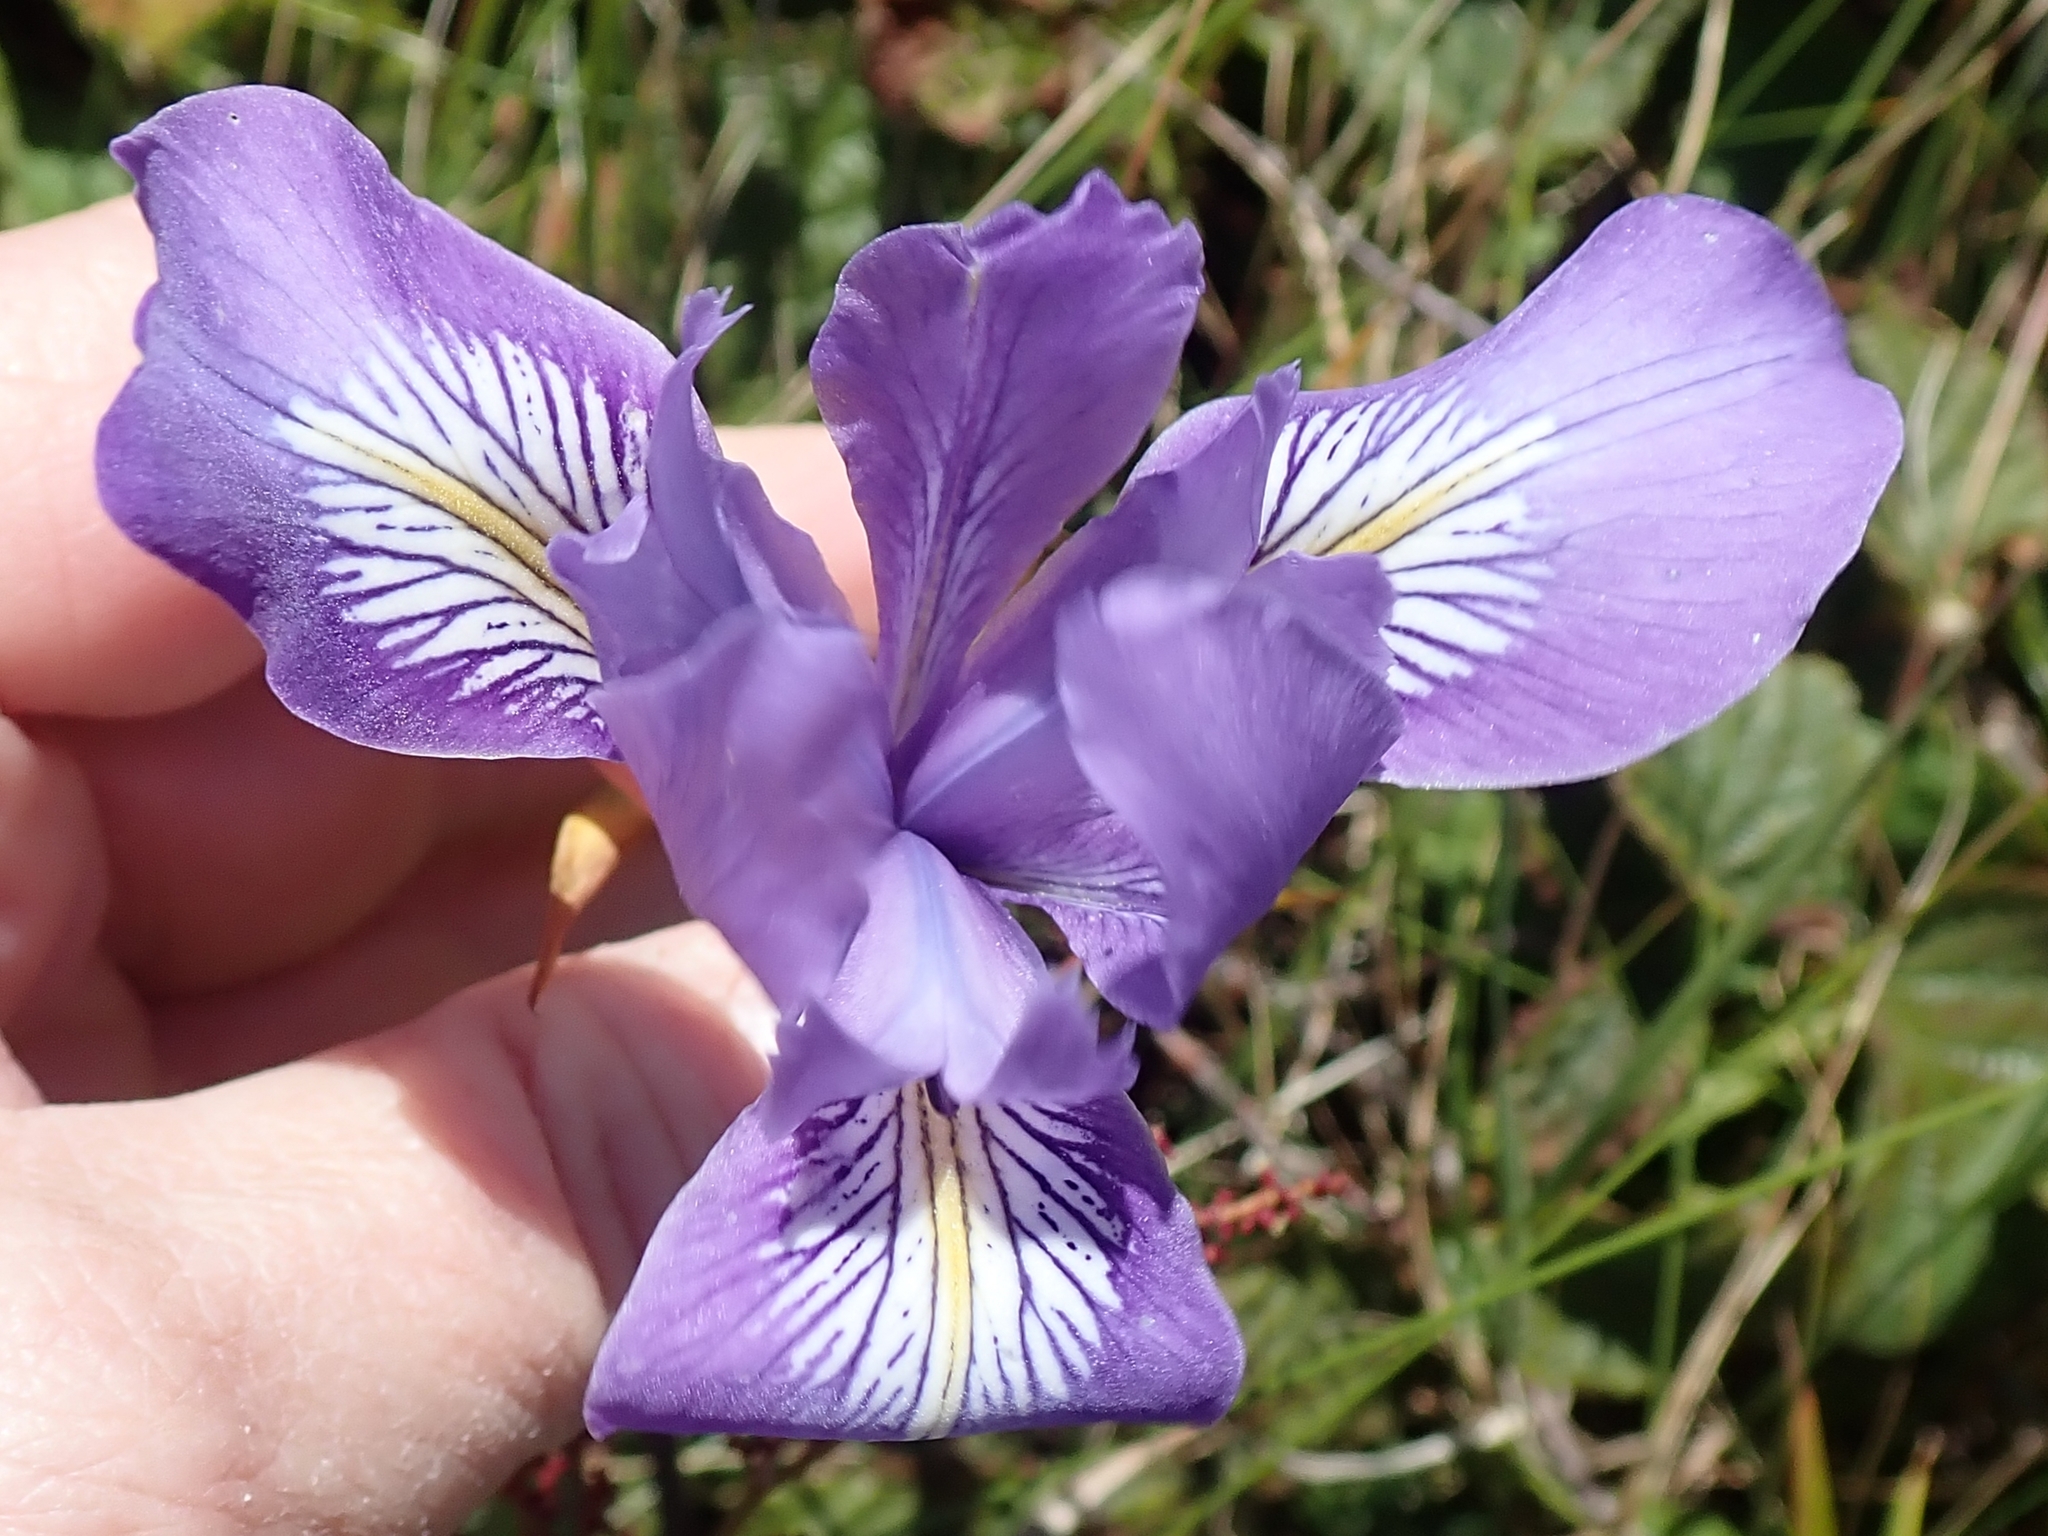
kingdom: Plantae
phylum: Tracheophyta
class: Liliopsida
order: Asparagales
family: Iridaceae
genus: Iris
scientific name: Iris douglasiana
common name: Marin iris
